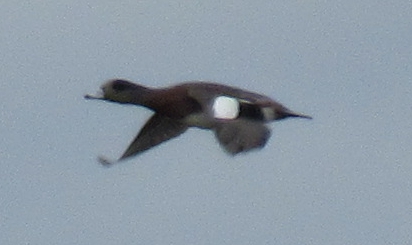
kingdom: Animalia
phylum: Chordata
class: Aves
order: Anseriformes
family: Anatidae
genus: Mareca
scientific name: Mareca americana
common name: American wigeon
